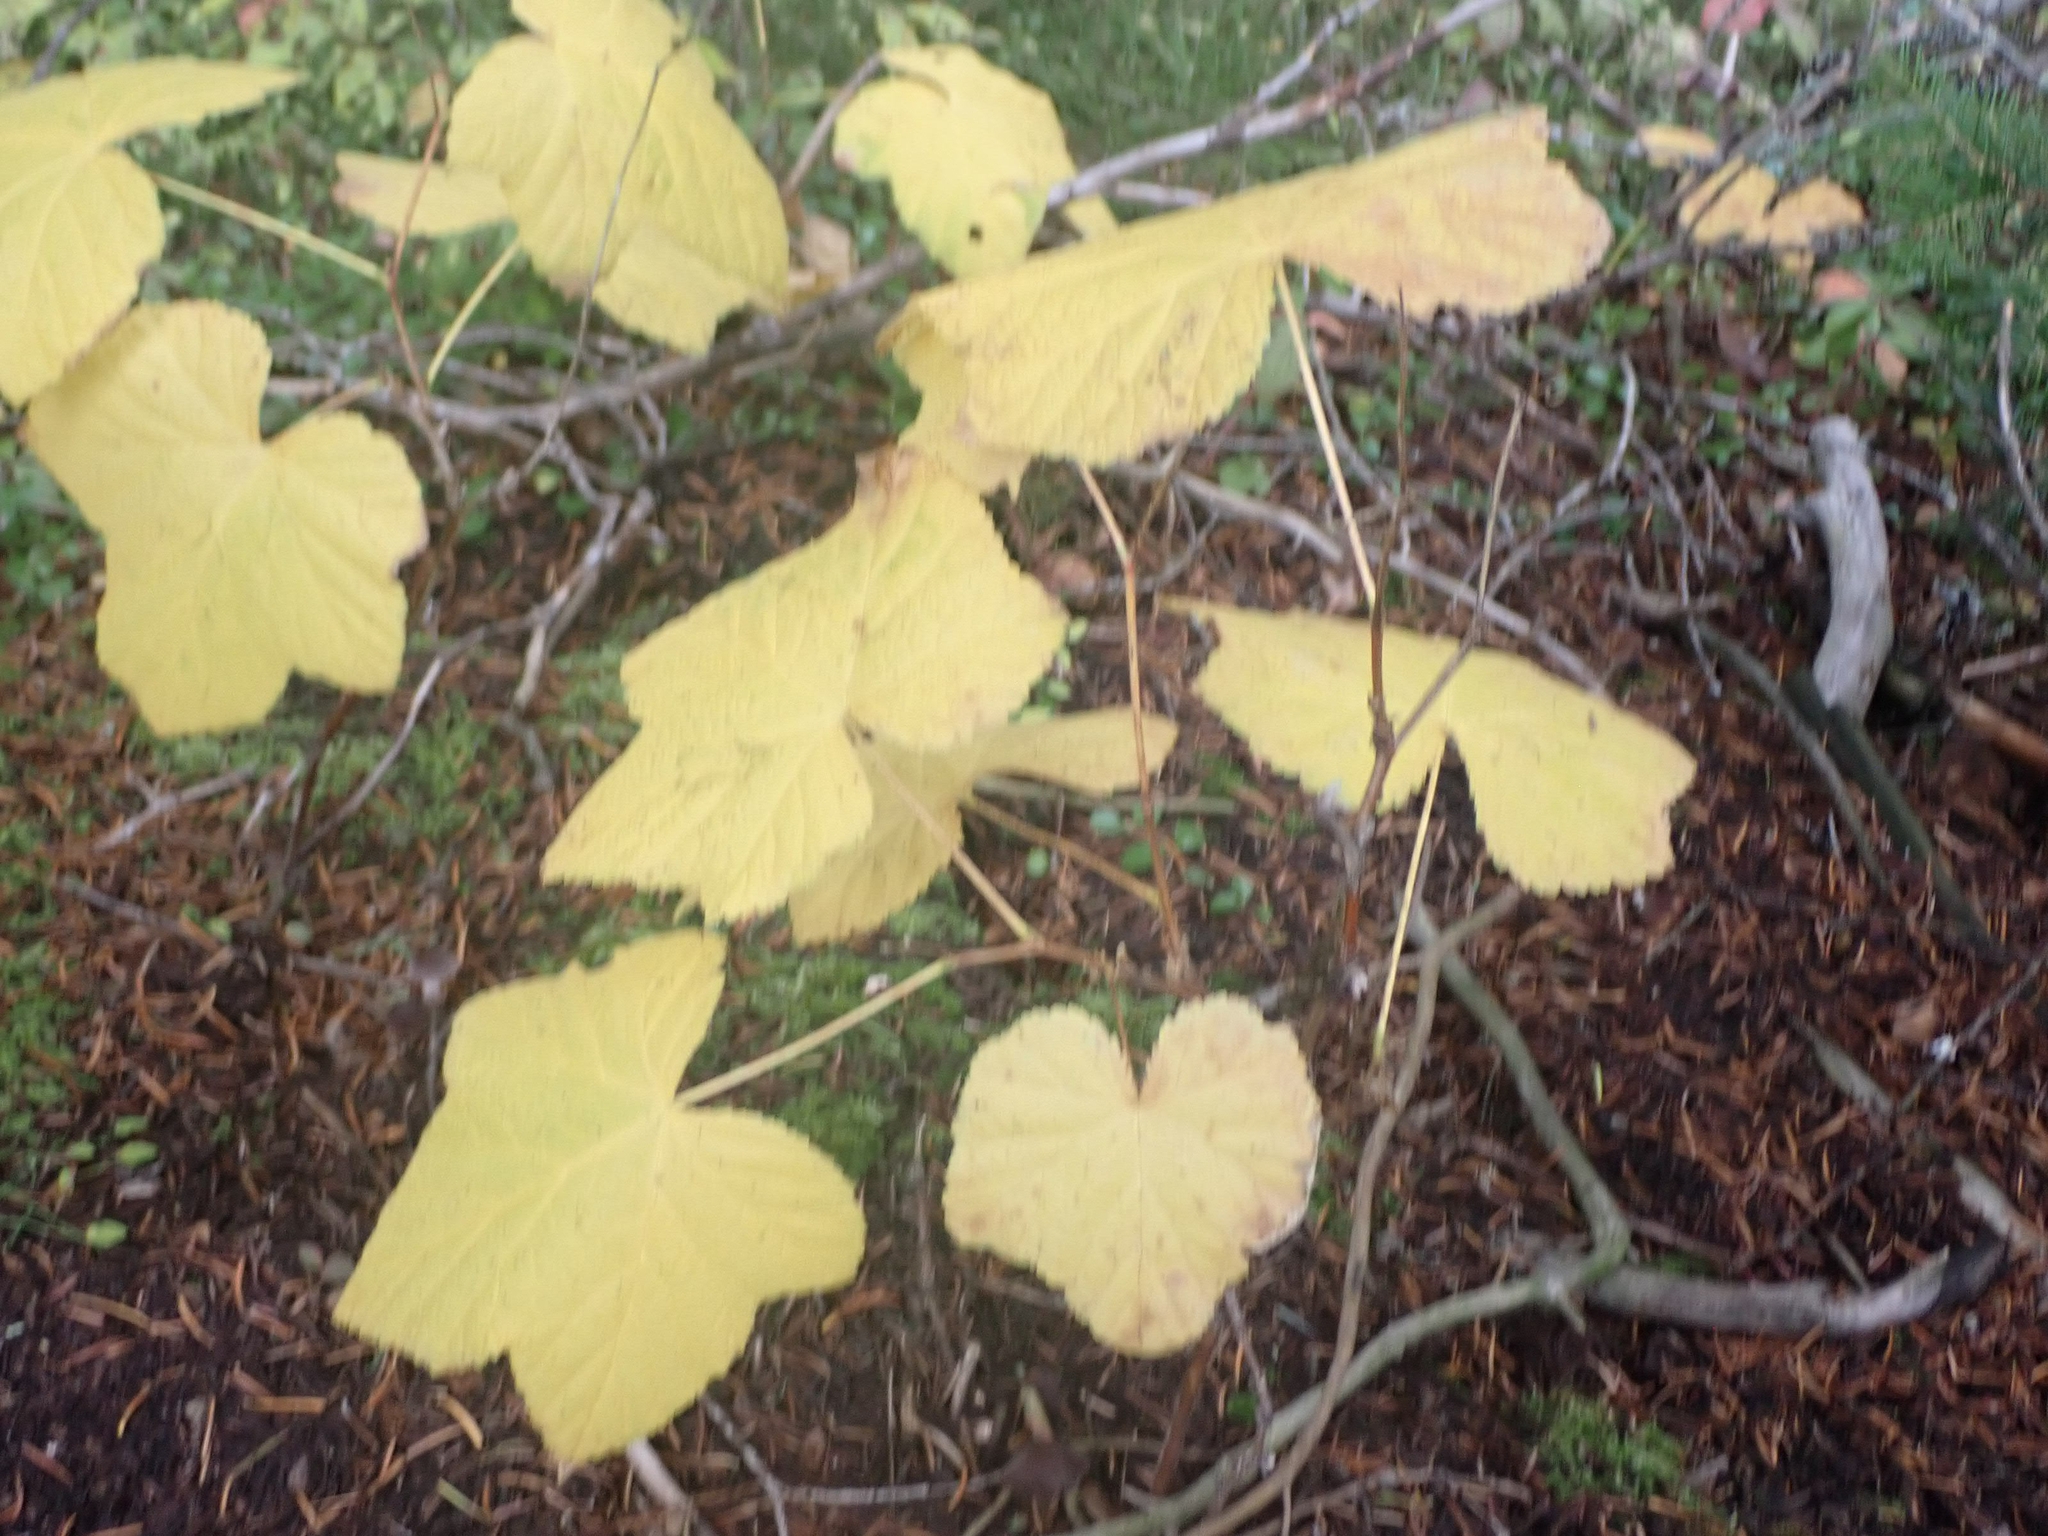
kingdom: Plantae
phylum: Tracheophyta
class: Magnoliopsida
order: Rosales
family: Rosaceae
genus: Rubus
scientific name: Rubus parviflorus
